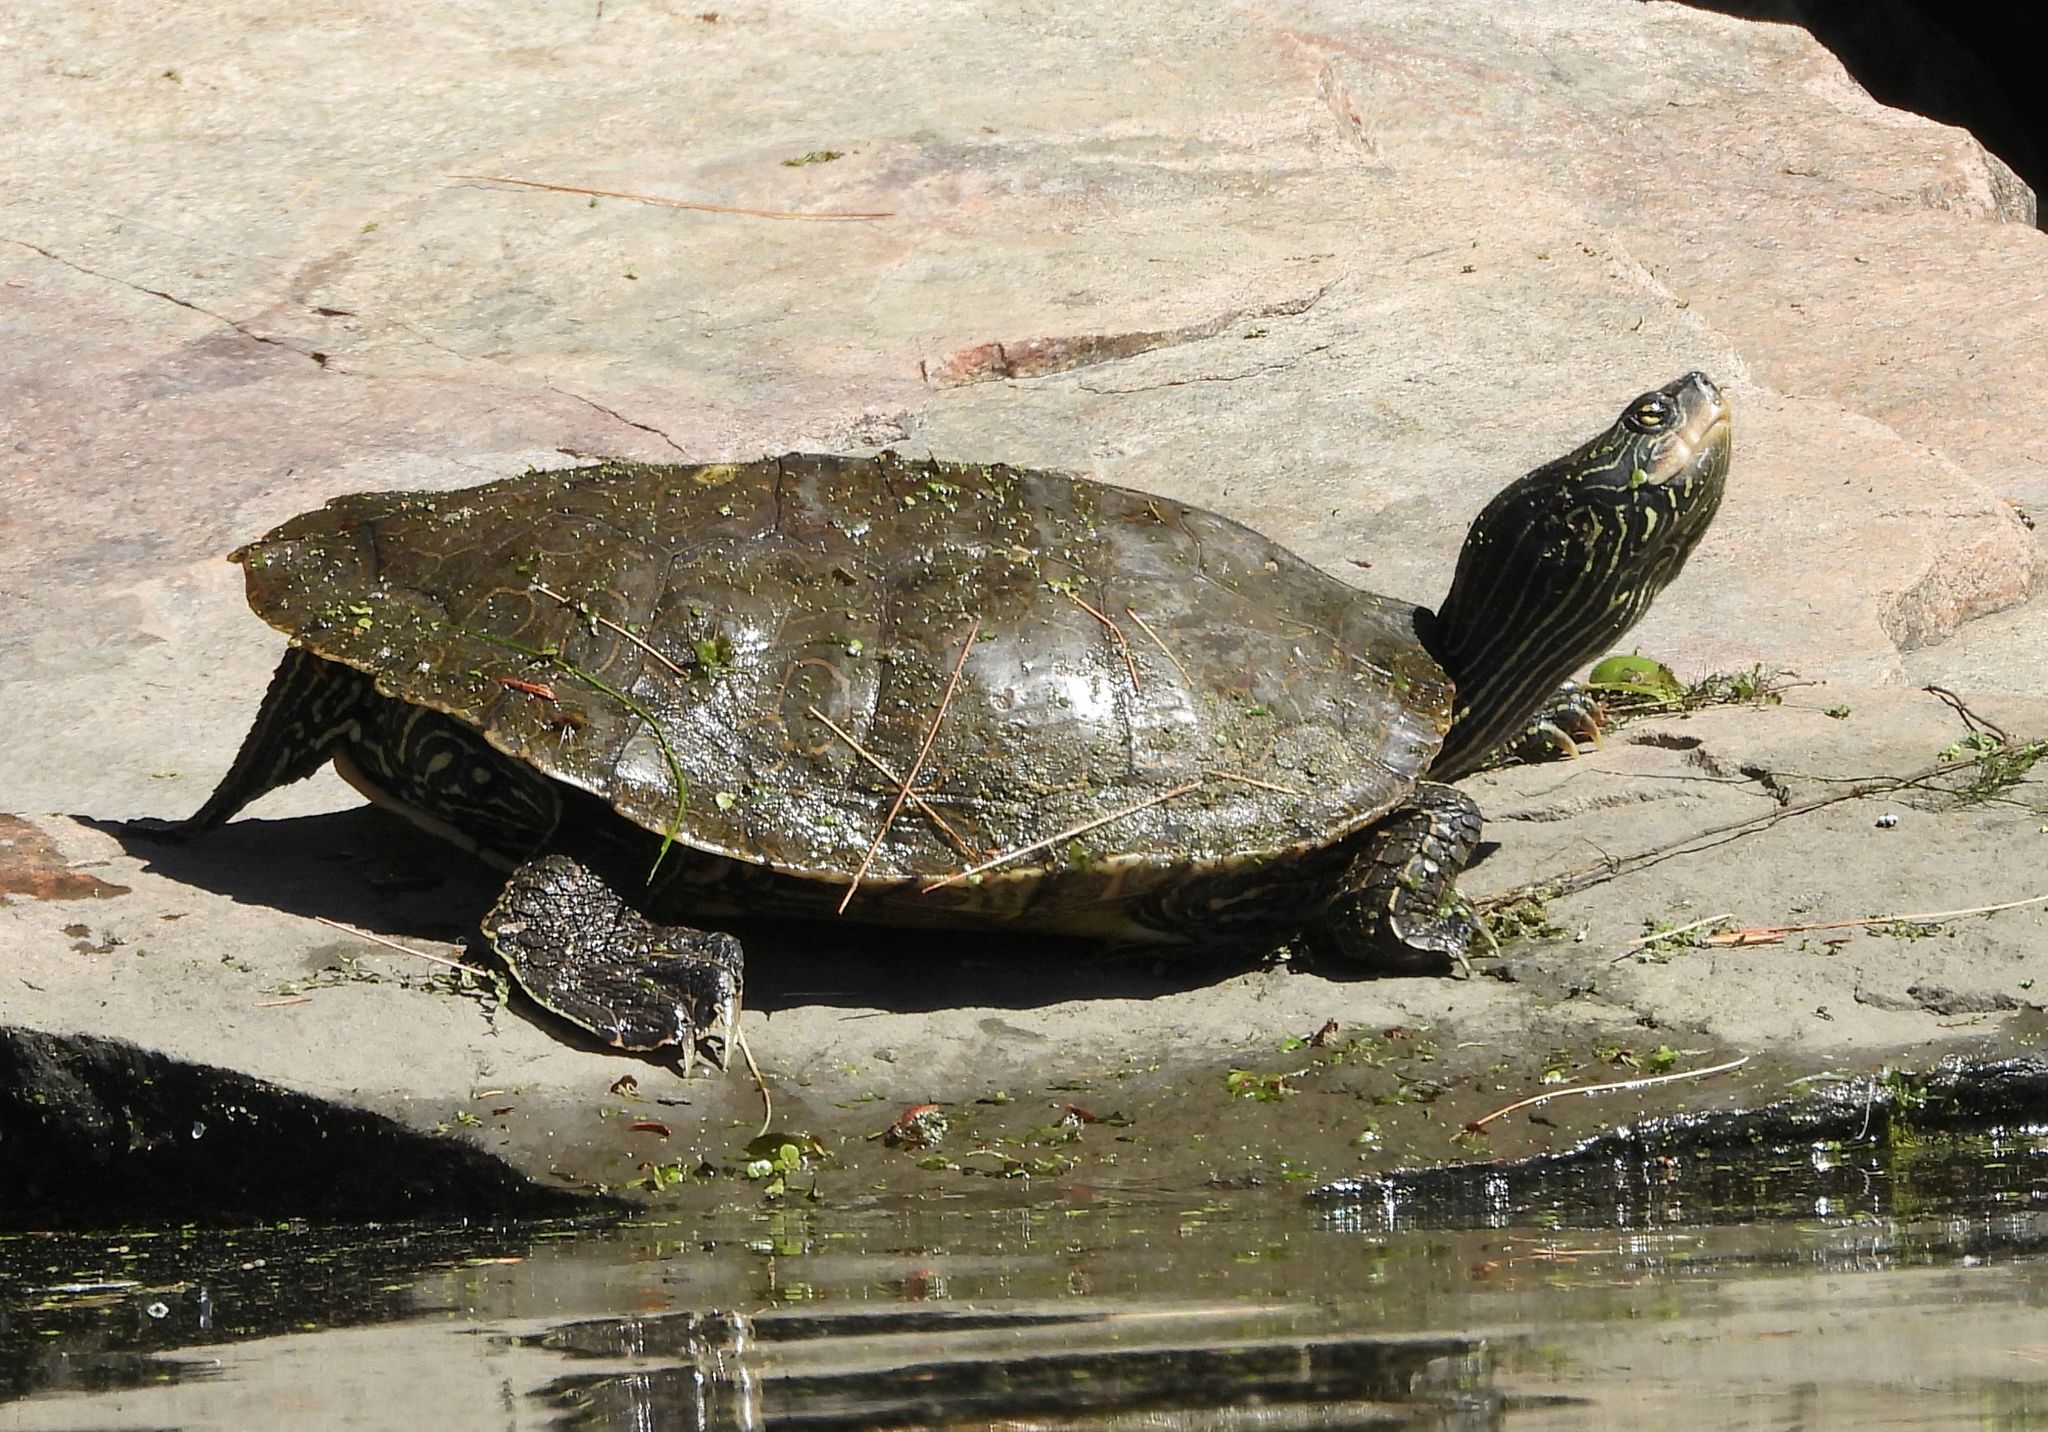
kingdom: Animalia
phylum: Chordata
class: Testudines
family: Emydidae
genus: Graptemys
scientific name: Graptemys geographica
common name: Common map turtle
